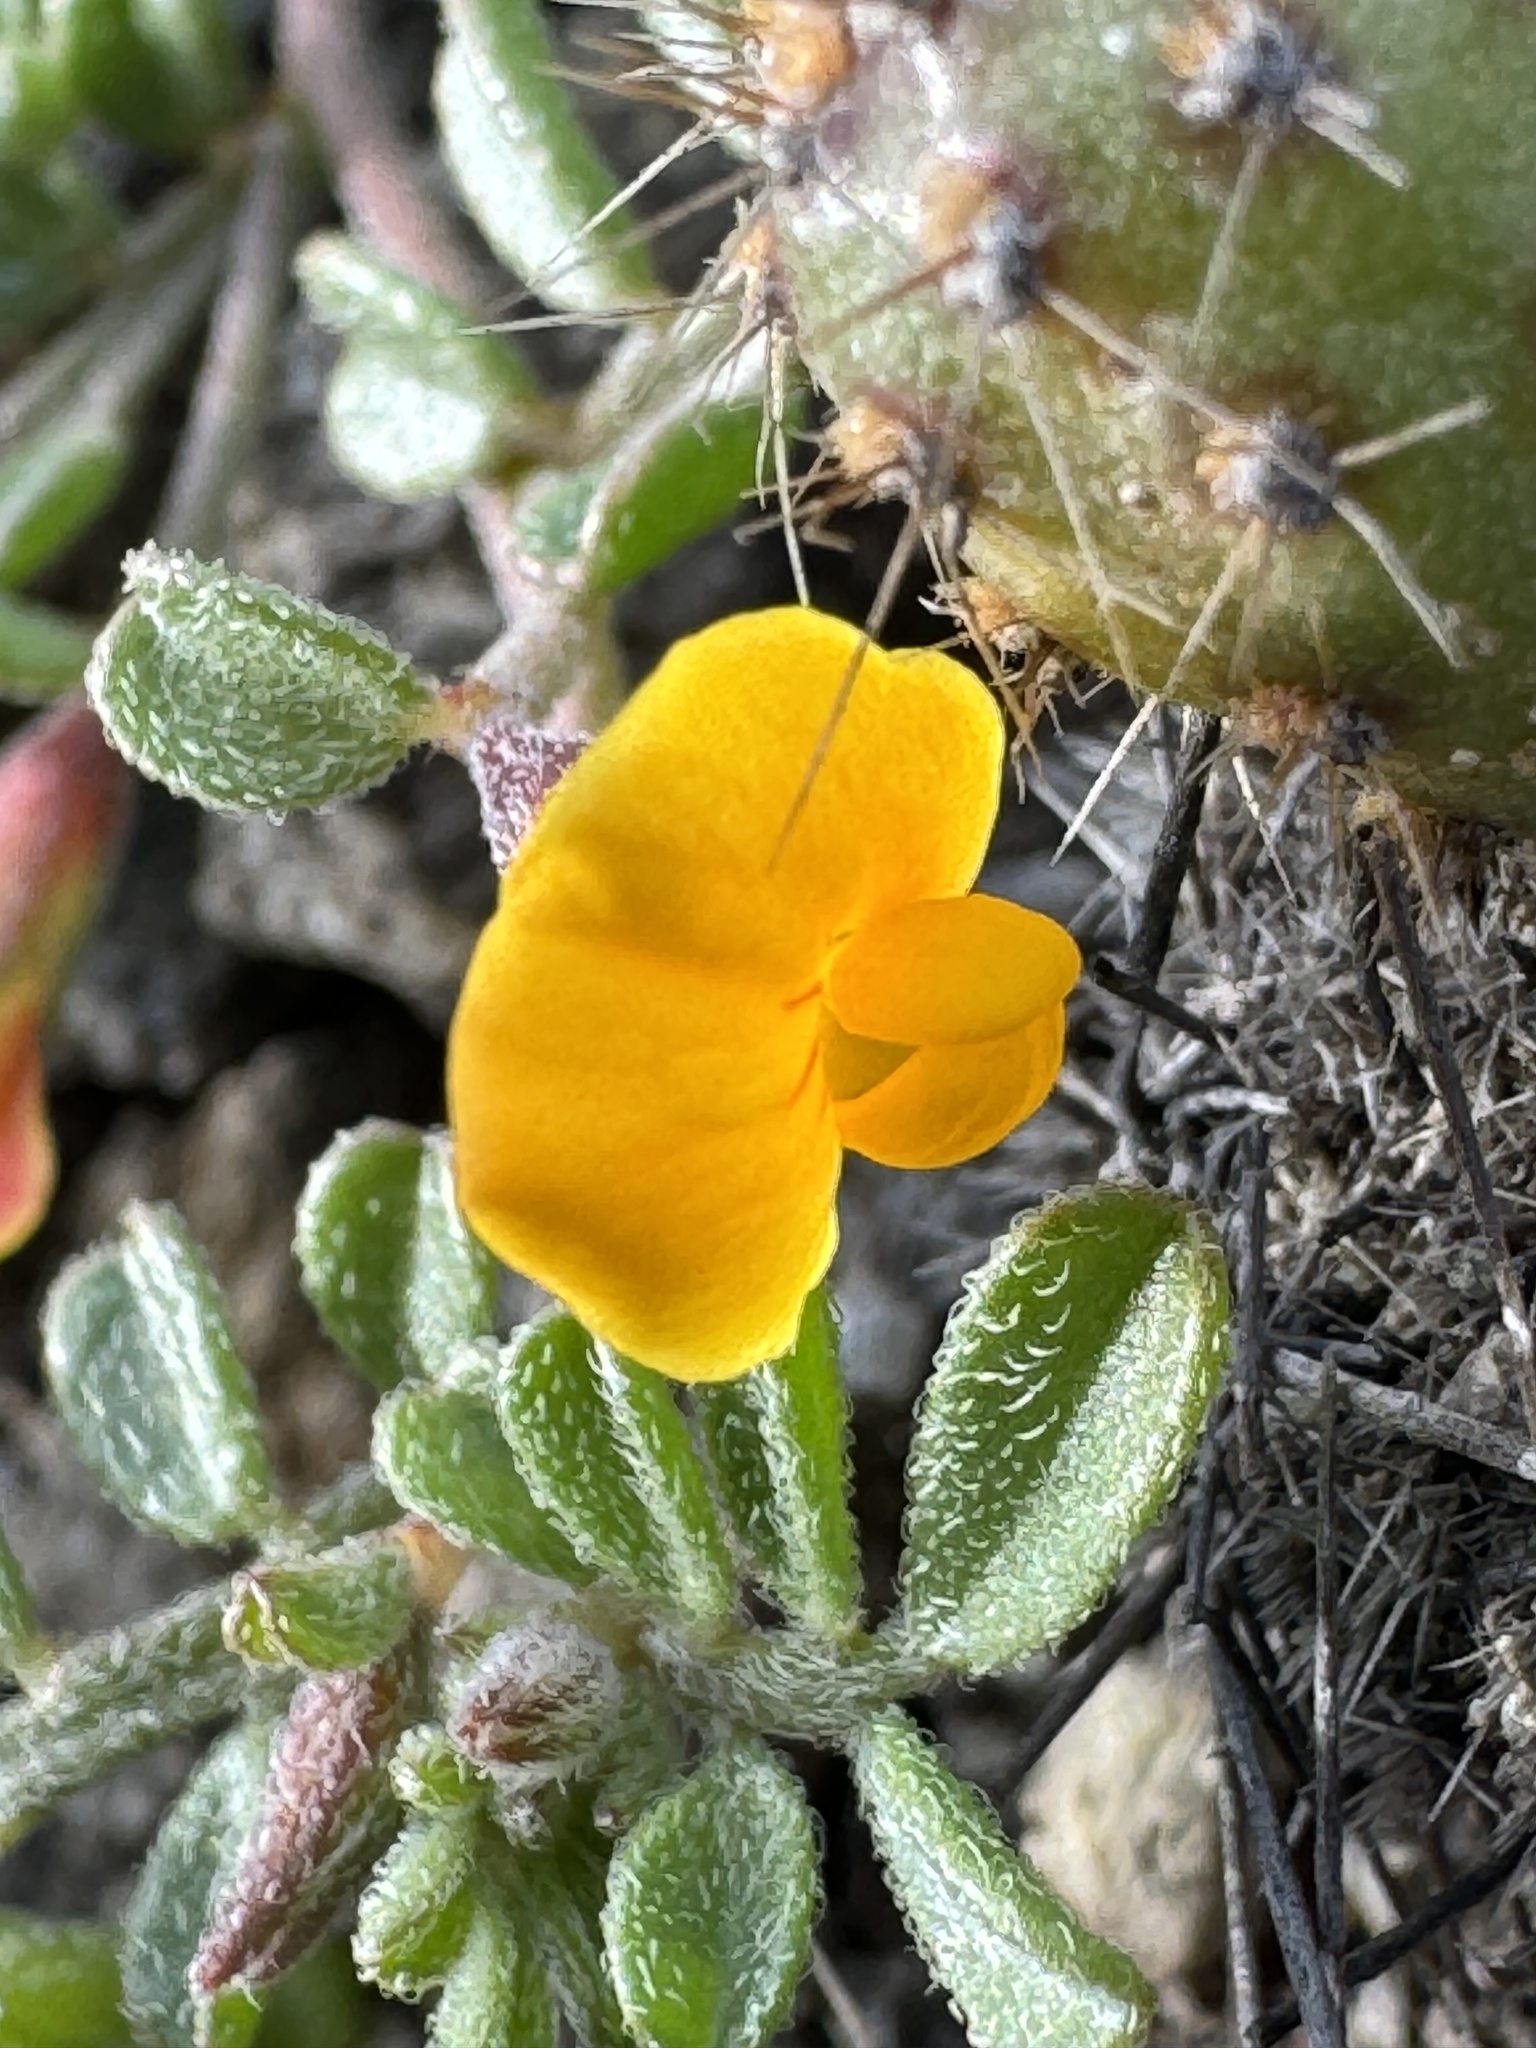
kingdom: Plantae
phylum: Tracheophyta
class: Magnoliopsida
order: Fabales
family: Fabaceae
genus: Acmispon
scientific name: Acmispon strigosus
